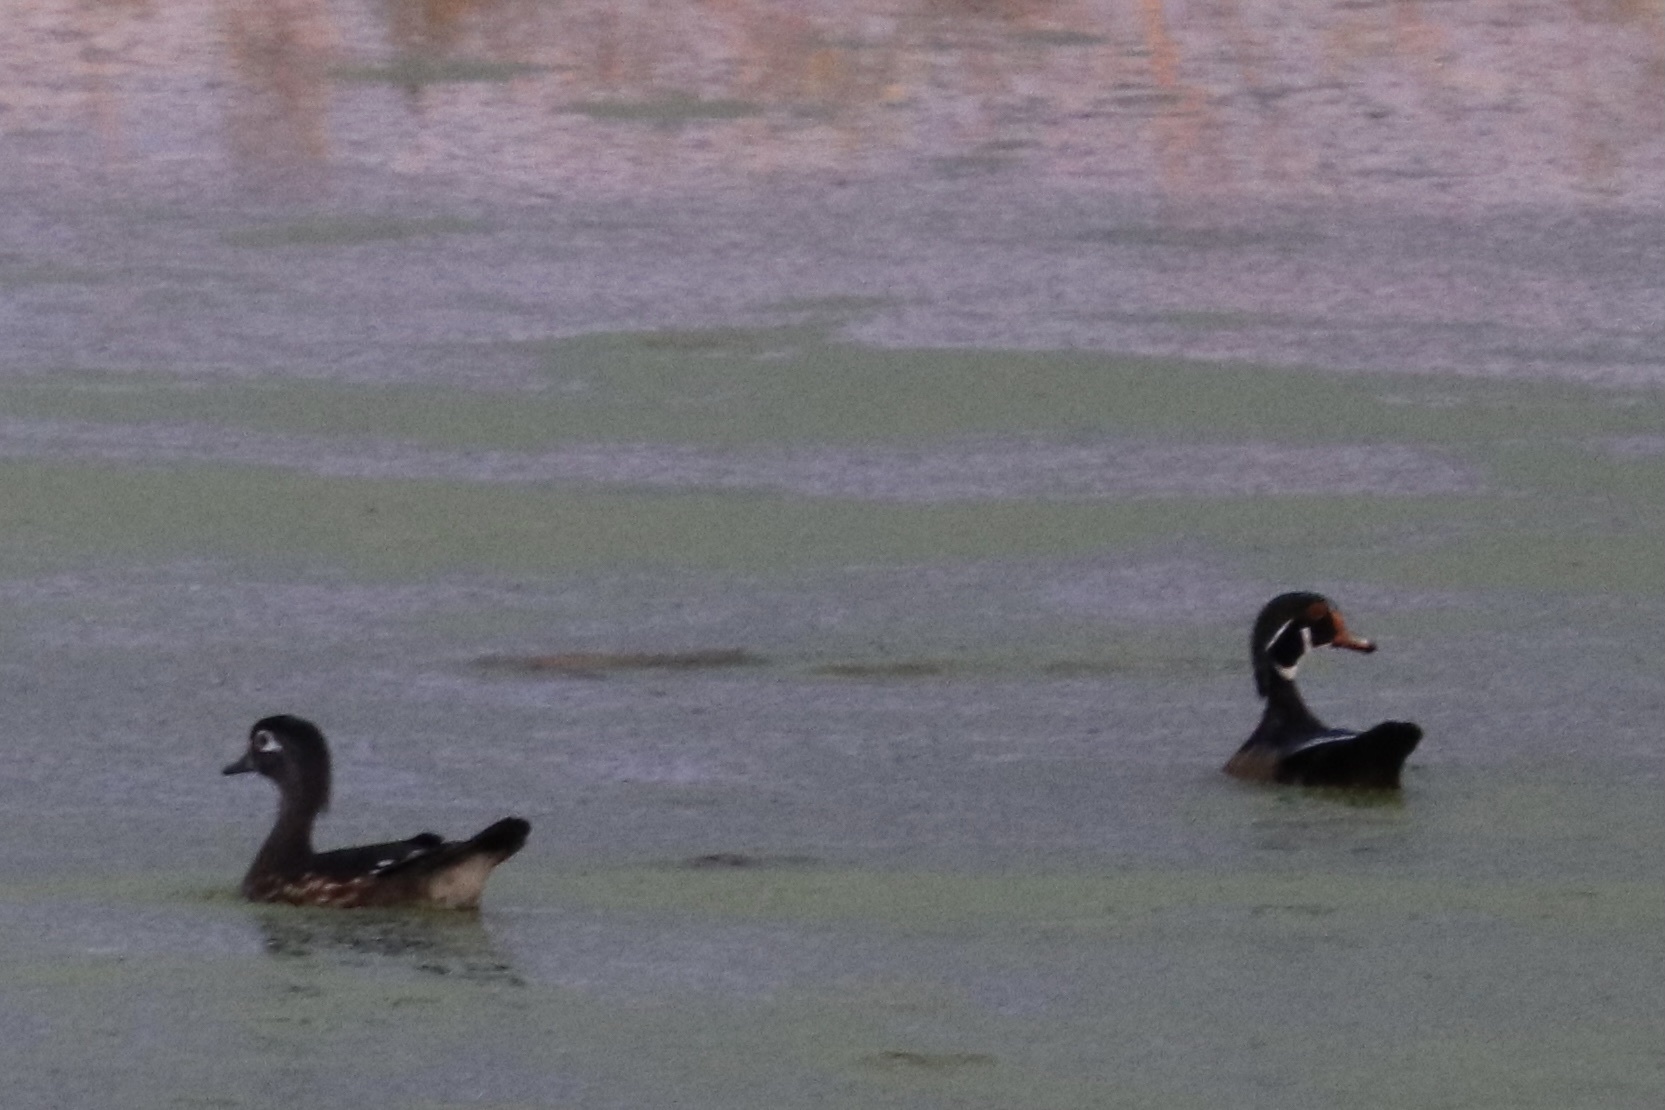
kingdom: Animalia
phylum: Chordata
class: Aves
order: Anseriformes
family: Anatidae
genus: Aix
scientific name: Aix sponsa
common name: Wood duck
